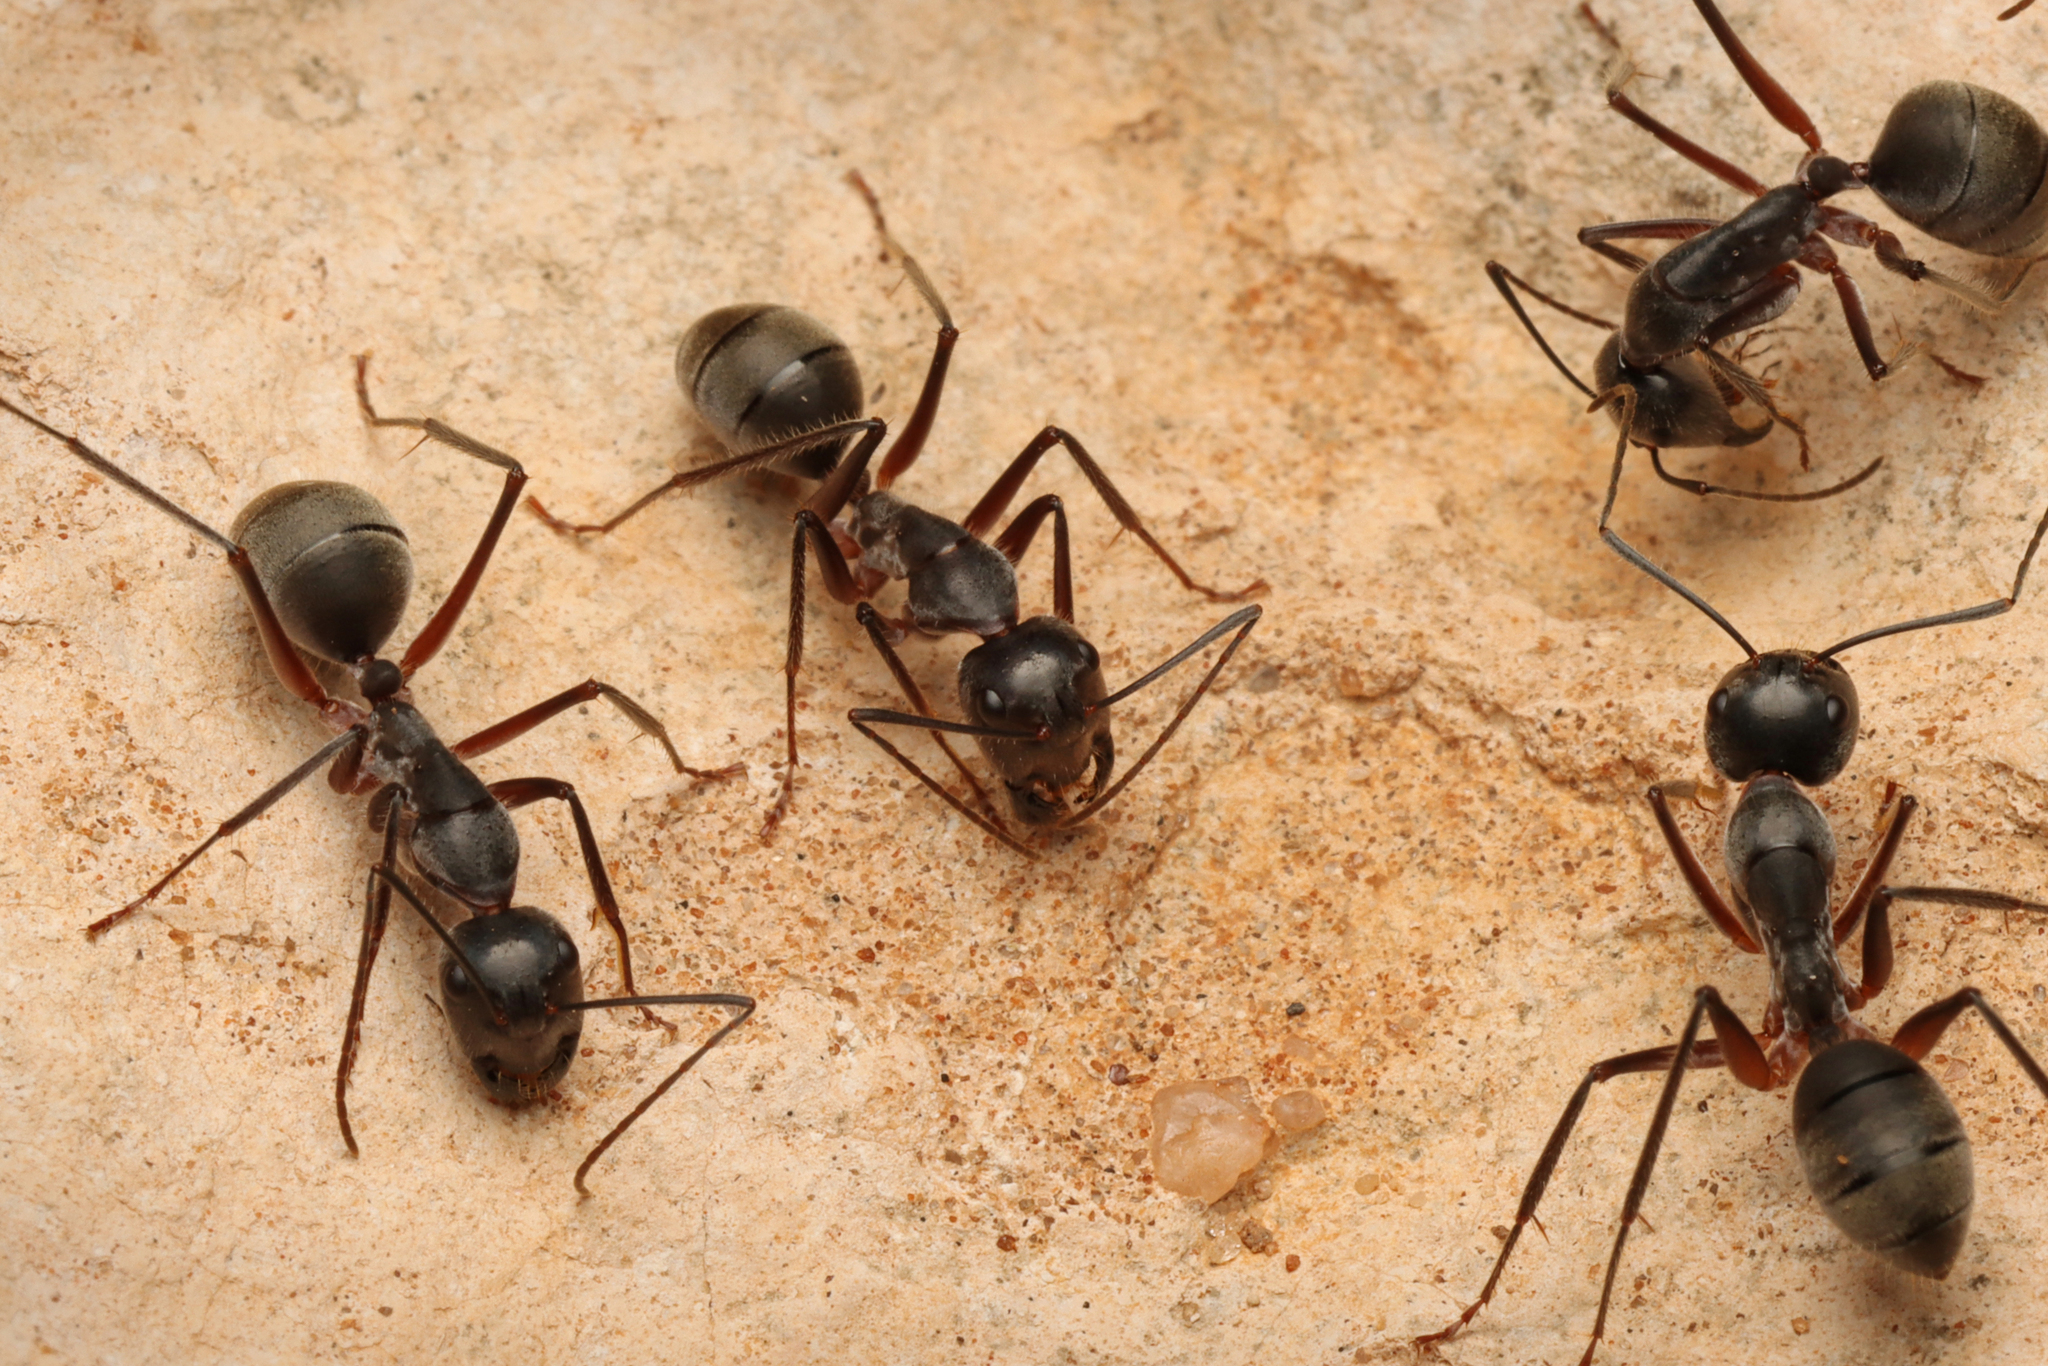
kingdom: Animalia
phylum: Arthropoda
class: Insecta
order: Hymenoptera
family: Formicidae
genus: Camponotus
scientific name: Camponotus gouldianus
